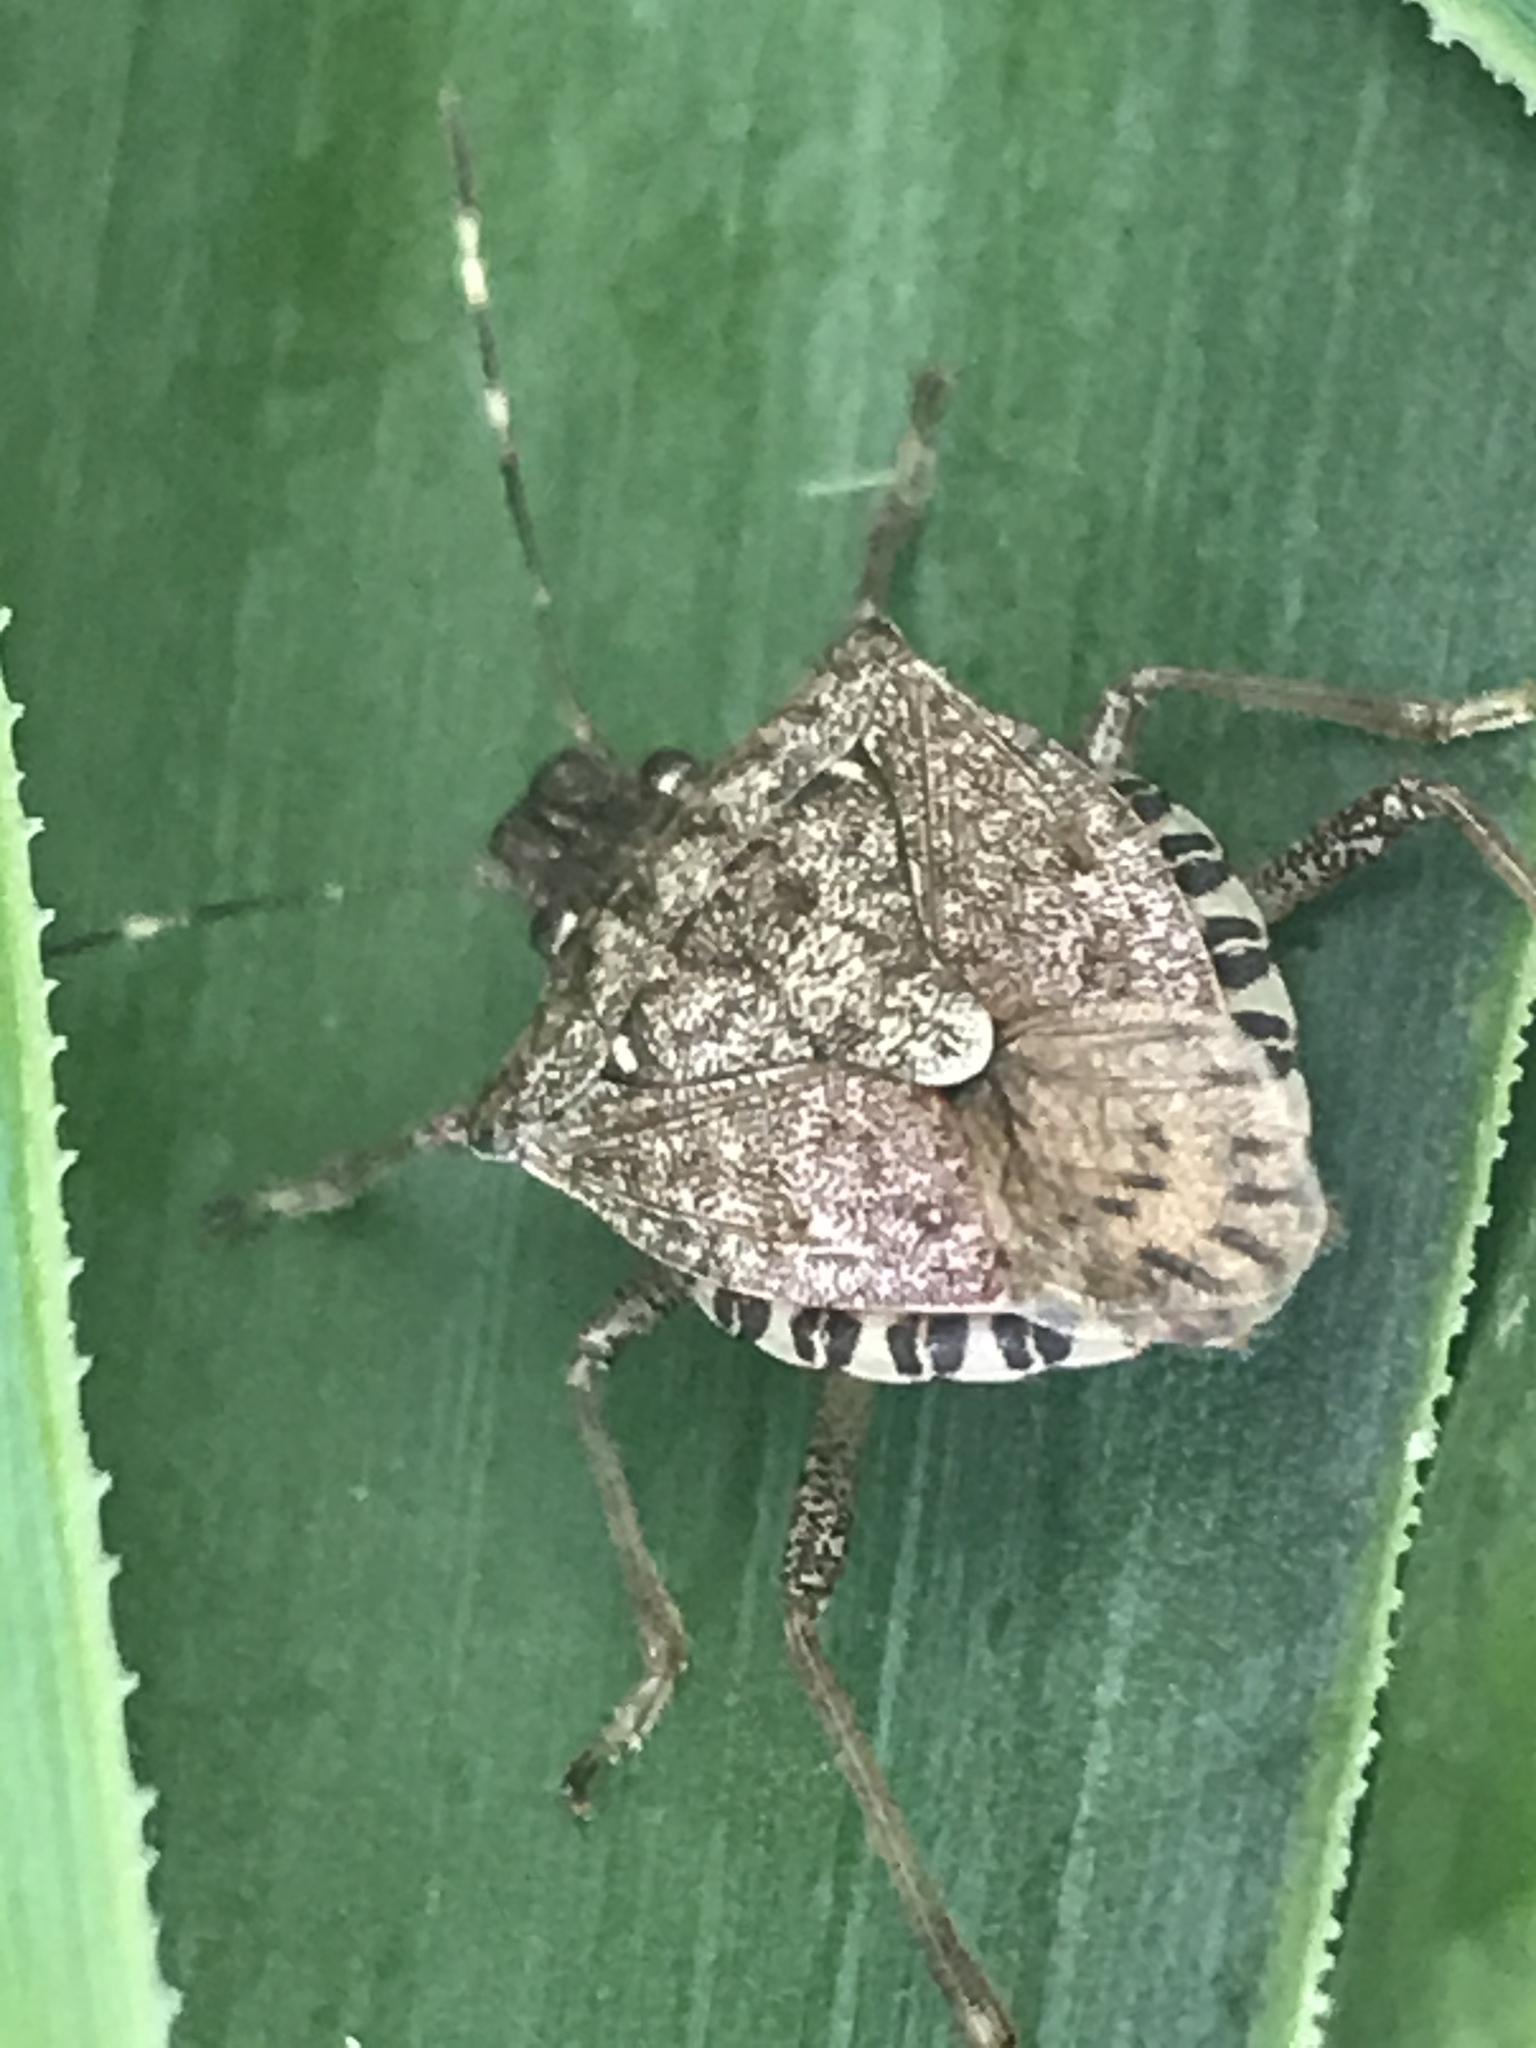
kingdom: Animalia
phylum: Arthropoda
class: Insecta
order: Hemiptera
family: Pentatomidae
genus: Halyomorpha
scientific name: Halyomorpha halys
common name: Brown marmorated stink bug
